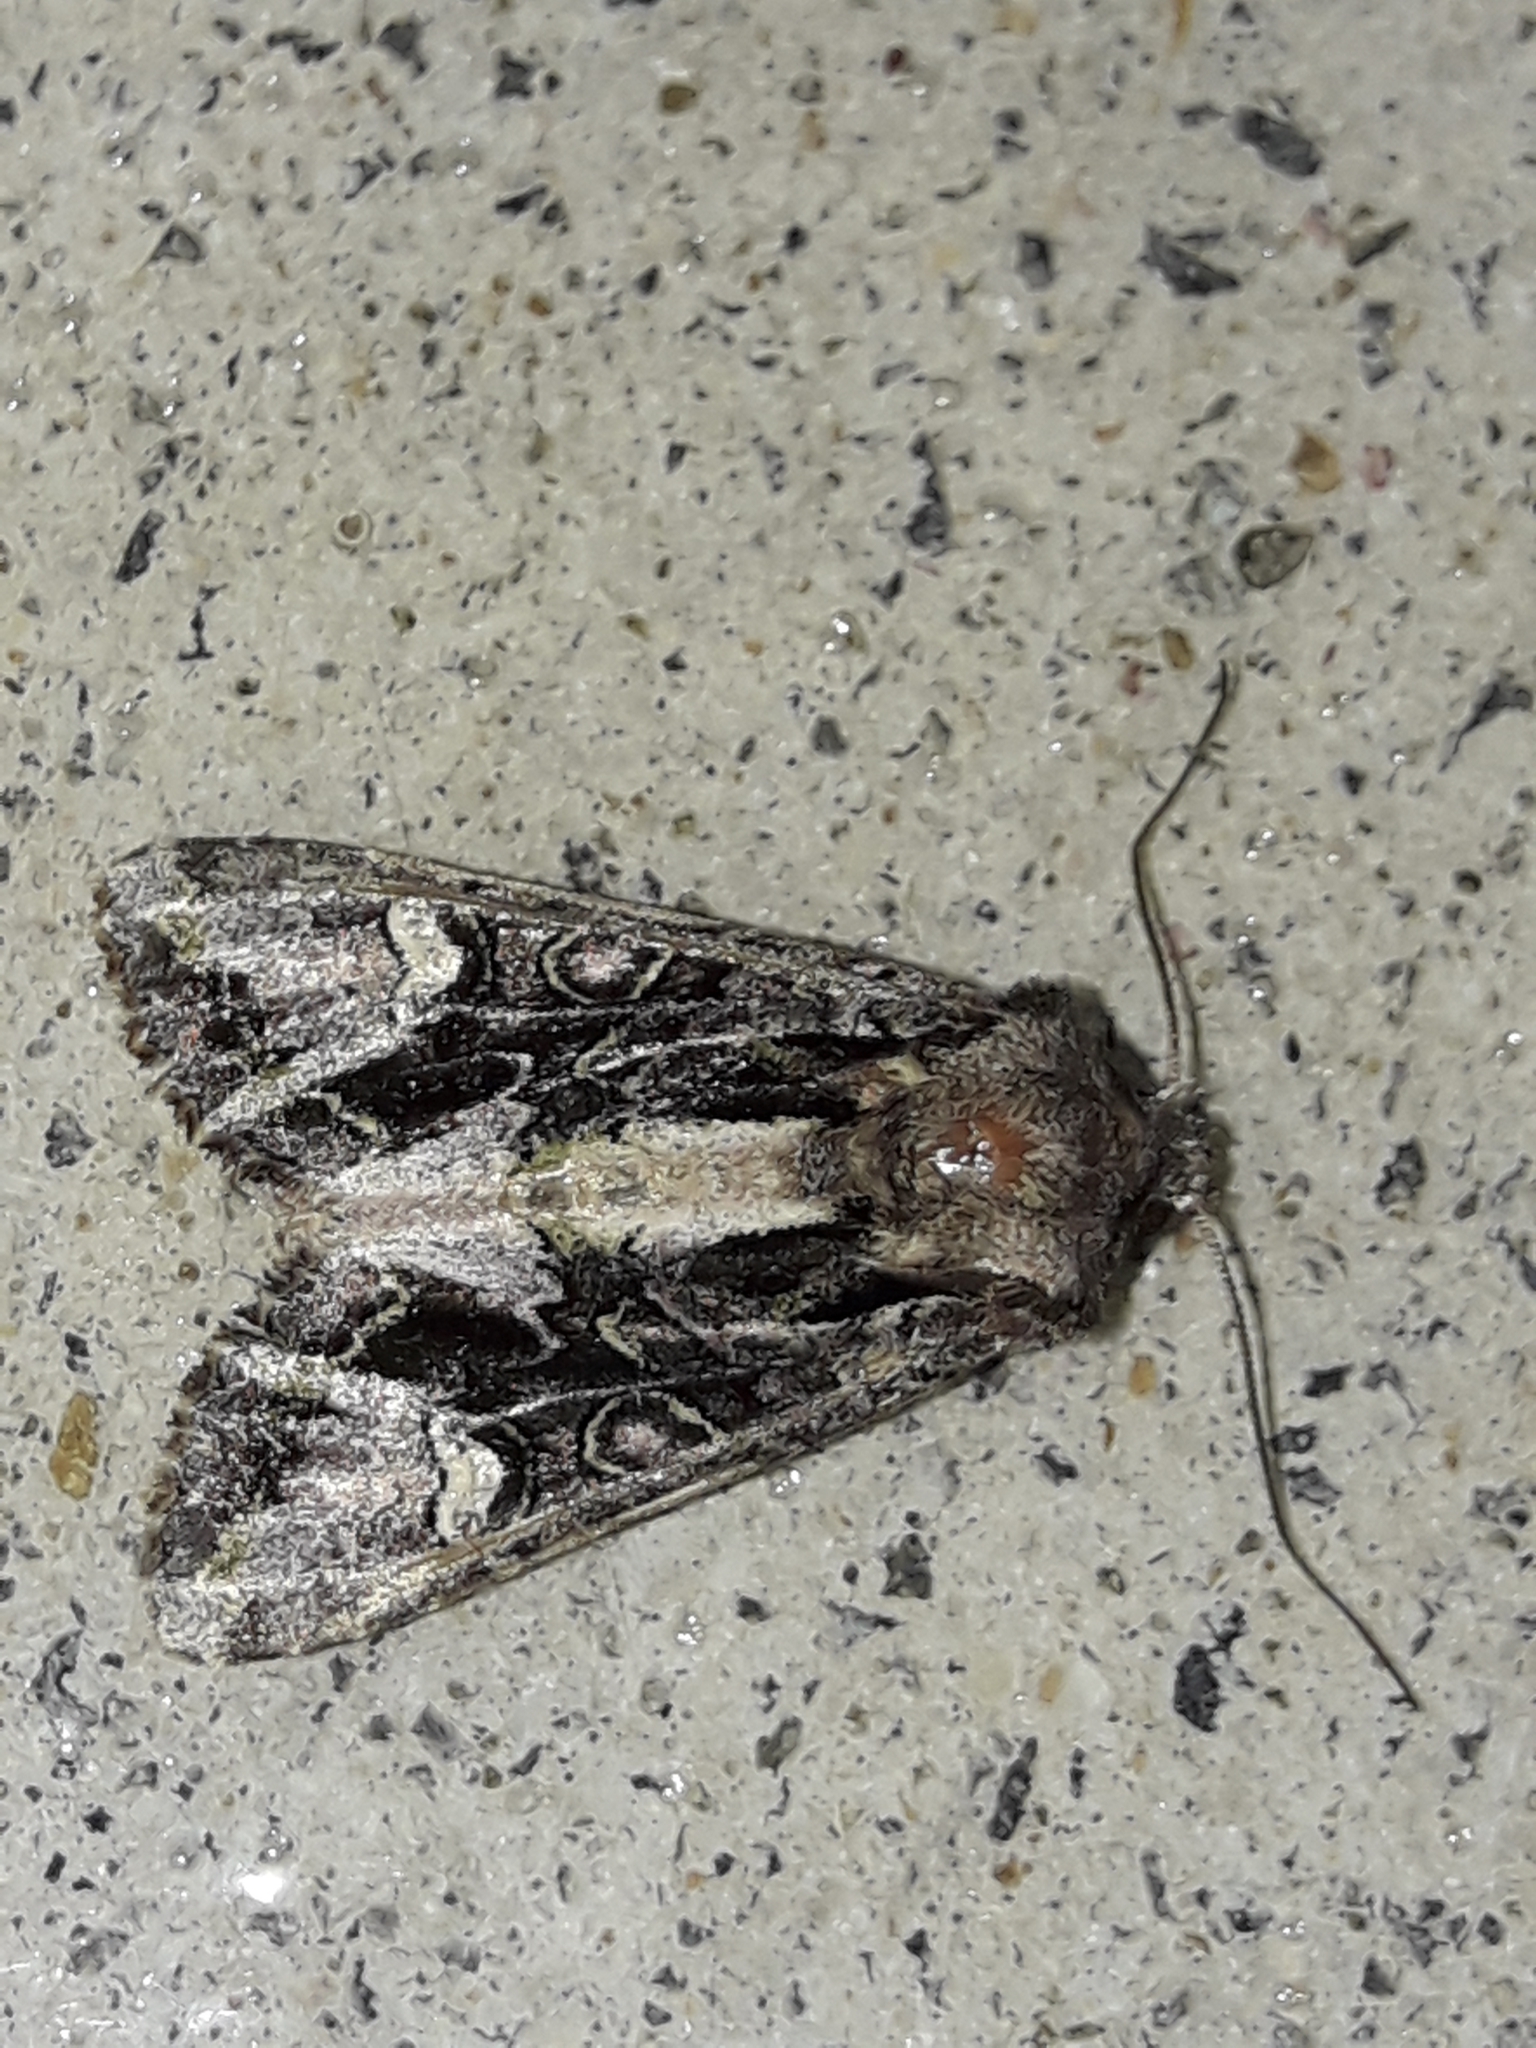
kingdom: Animalia
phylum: Arthropoda
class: Insecta
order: Lepidoptera
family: Noctuidae
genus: Ichneutica
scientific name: Ichneutica insignis
